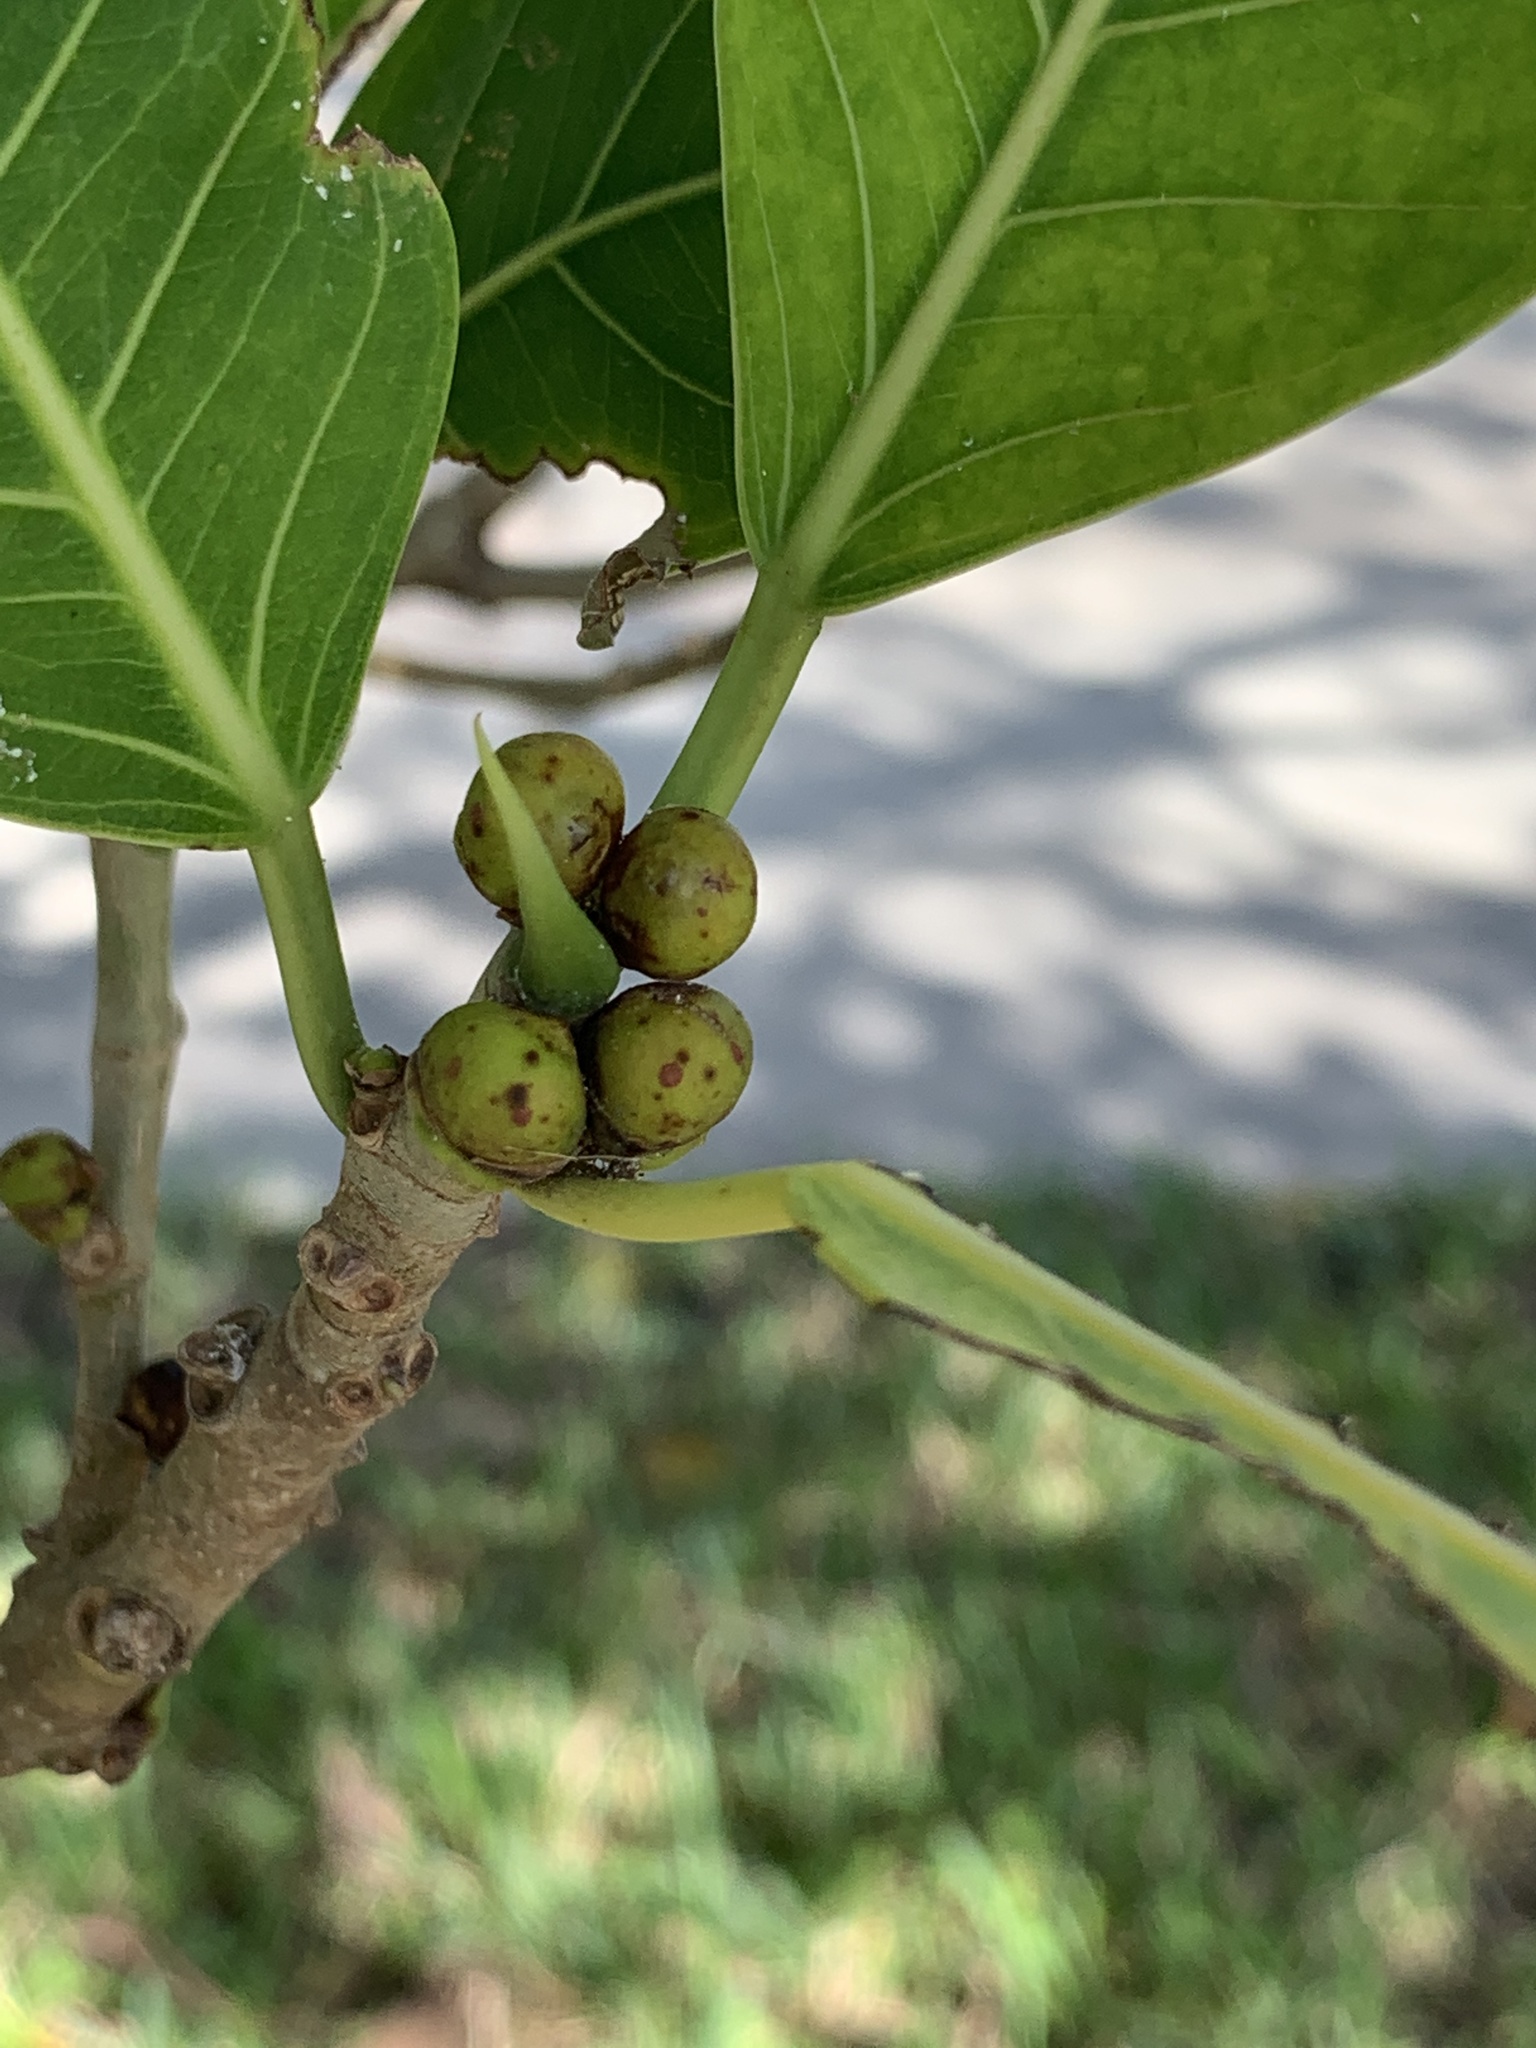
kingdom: Plantae
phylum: Tracheophyta
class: Magnoliopsida
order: Rosales
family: Moraceae
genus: Ficus
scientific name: Ficus aurea
